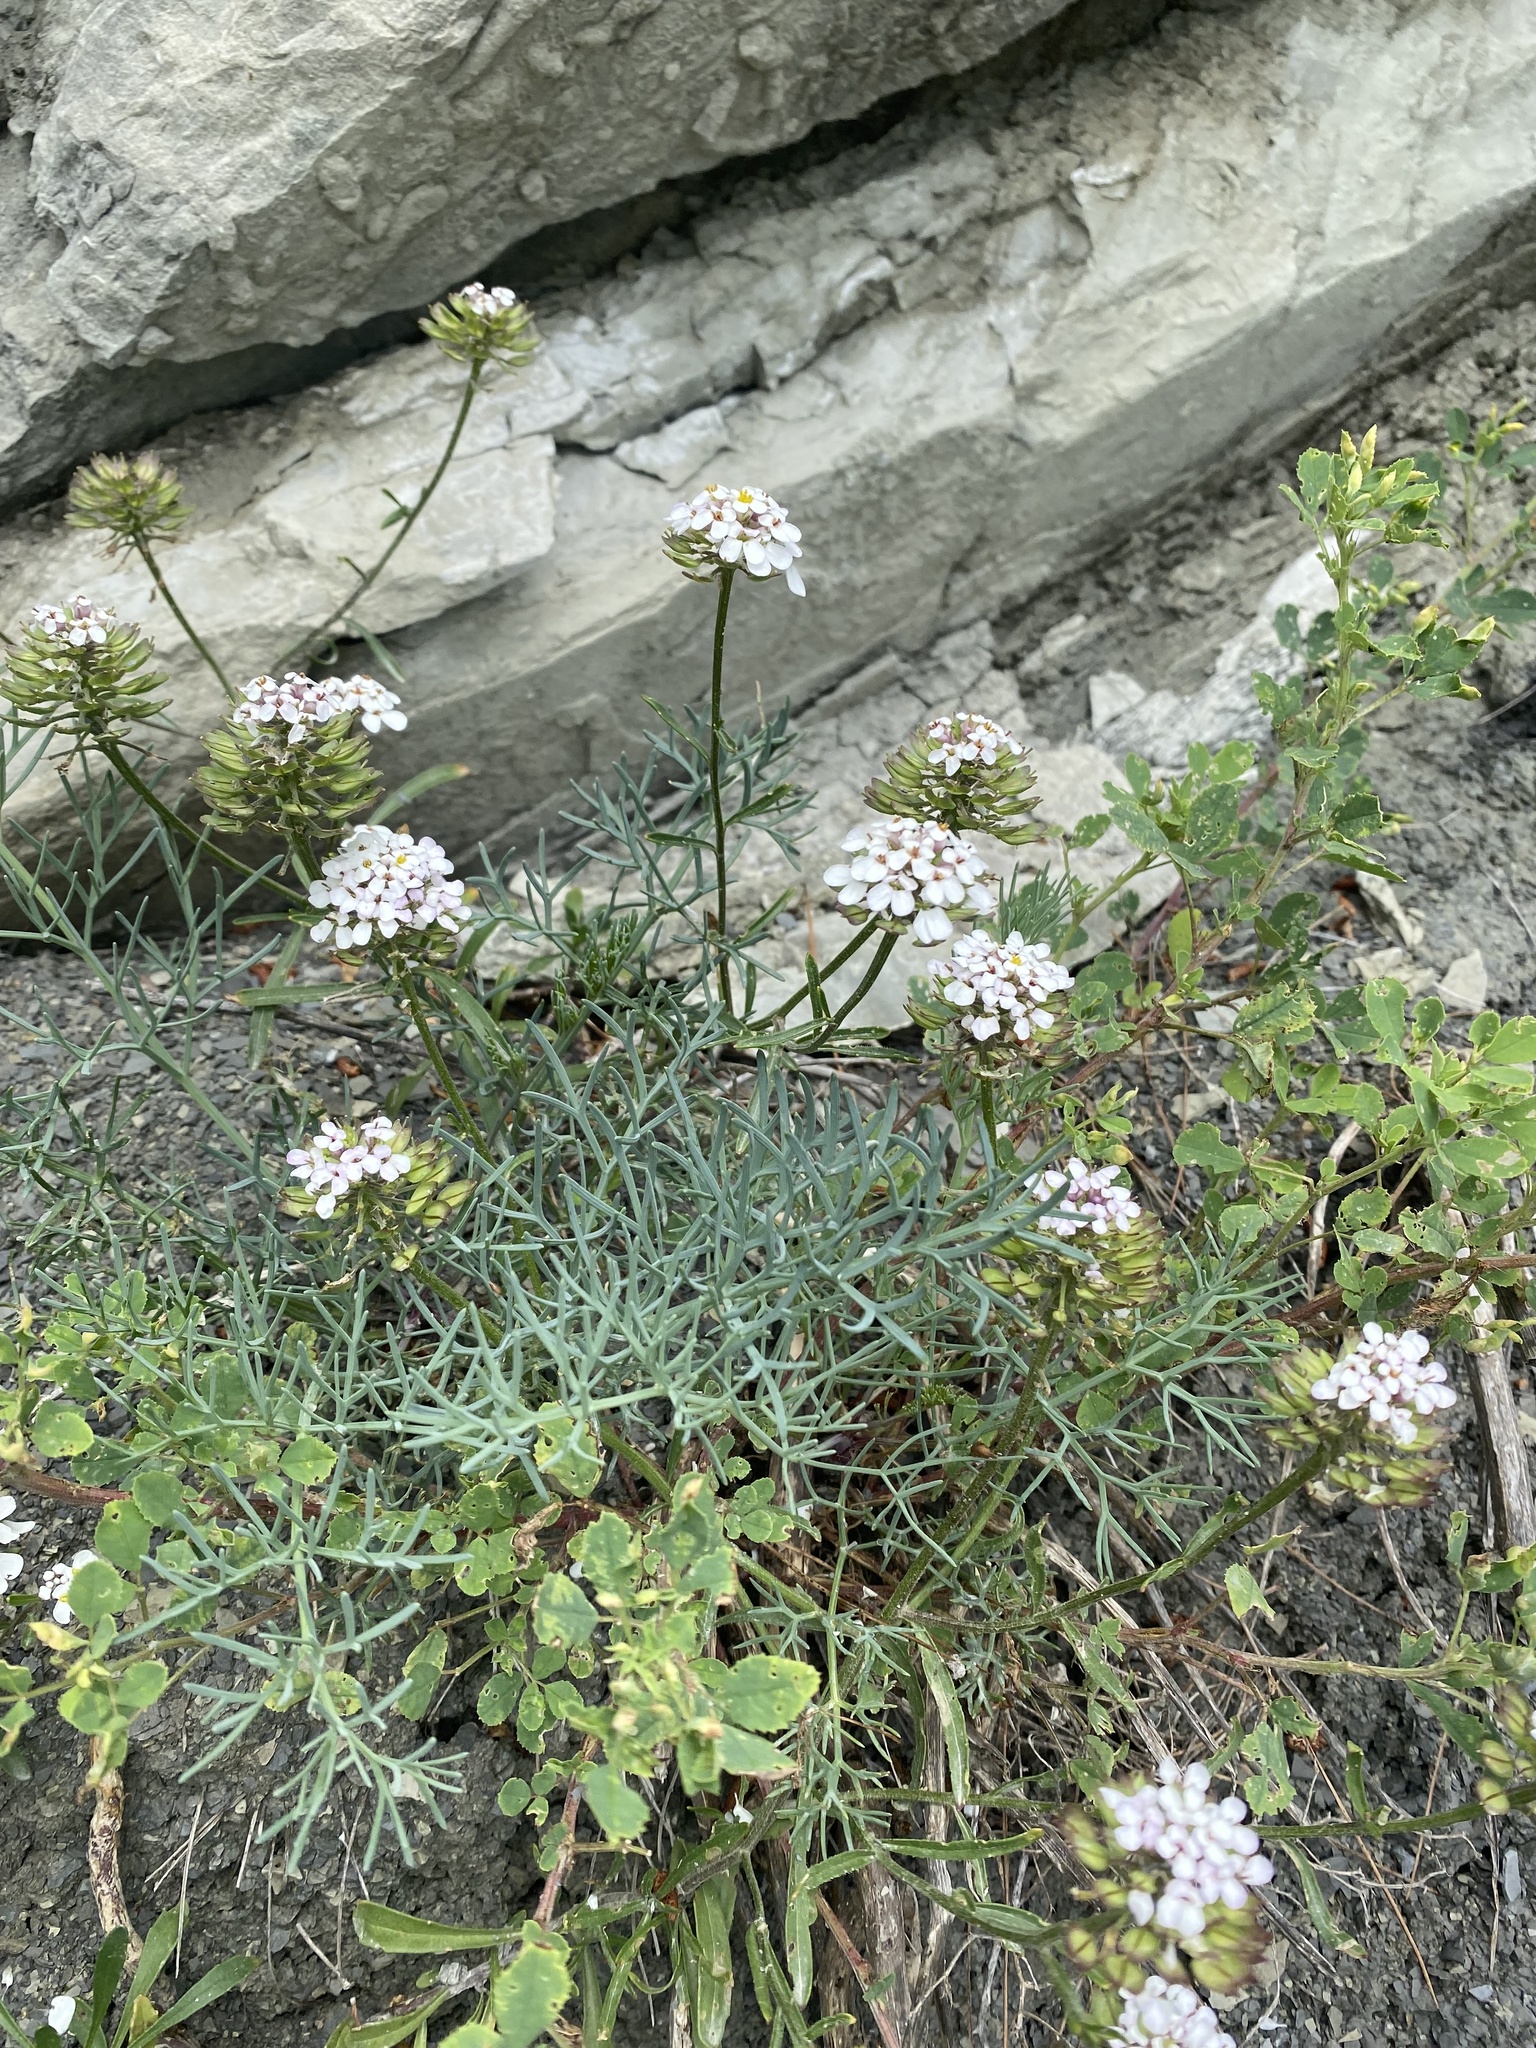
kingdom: Plantae
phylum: Tracheophyta
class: Magnoliopsida
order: Brassicales
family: Brassicaceae
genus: Iberis
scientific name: Iberis simplex
